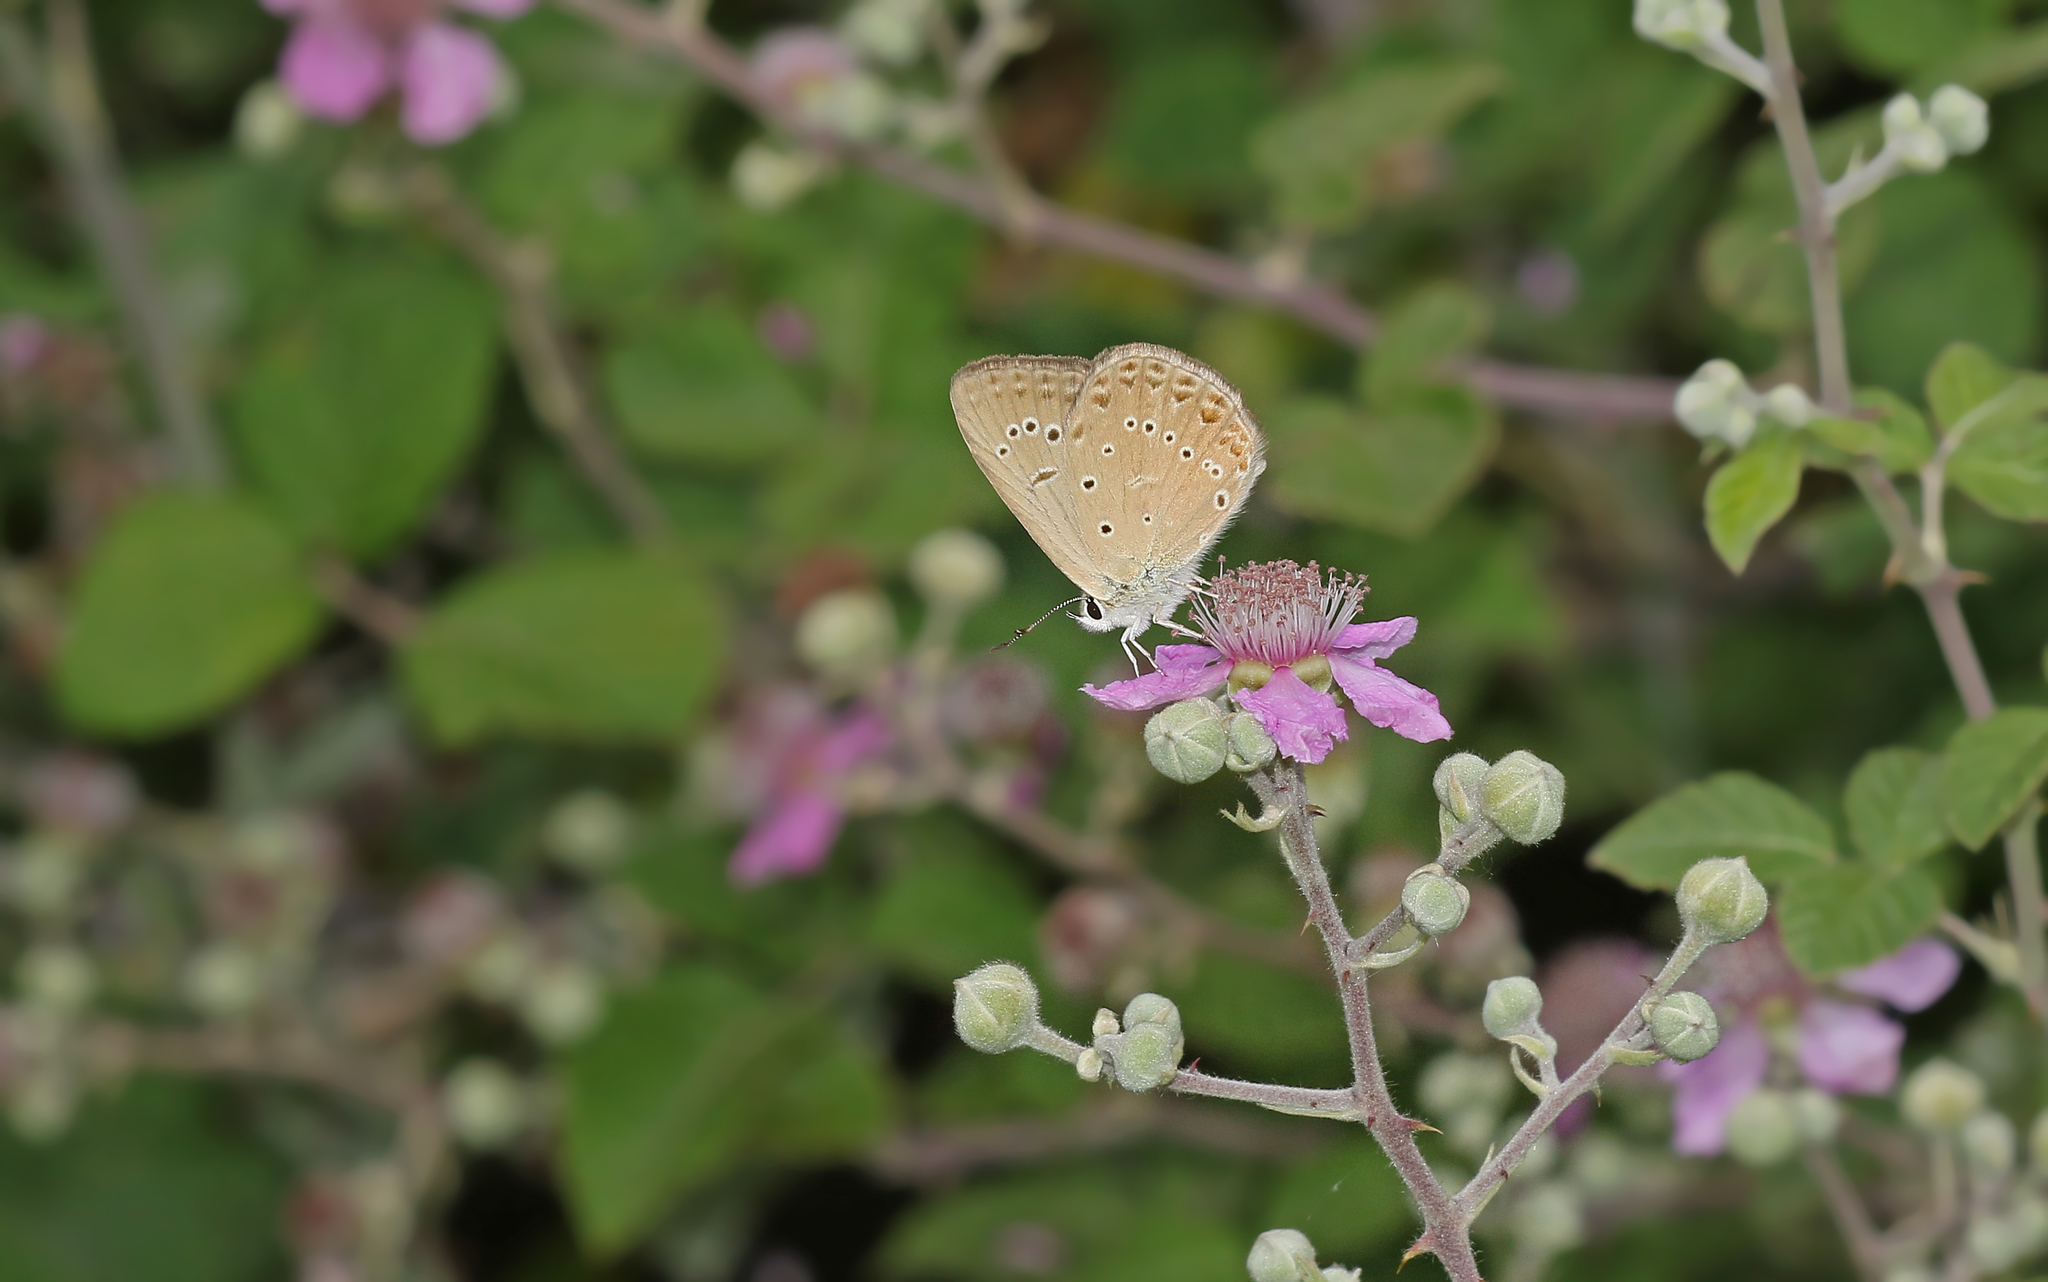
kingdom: Animalia
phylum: Arthropoda
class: Insecta
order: Lepidoptera
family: Lycaenidae
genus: Agrodiaetus
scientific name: Agrodiaetus admetus
